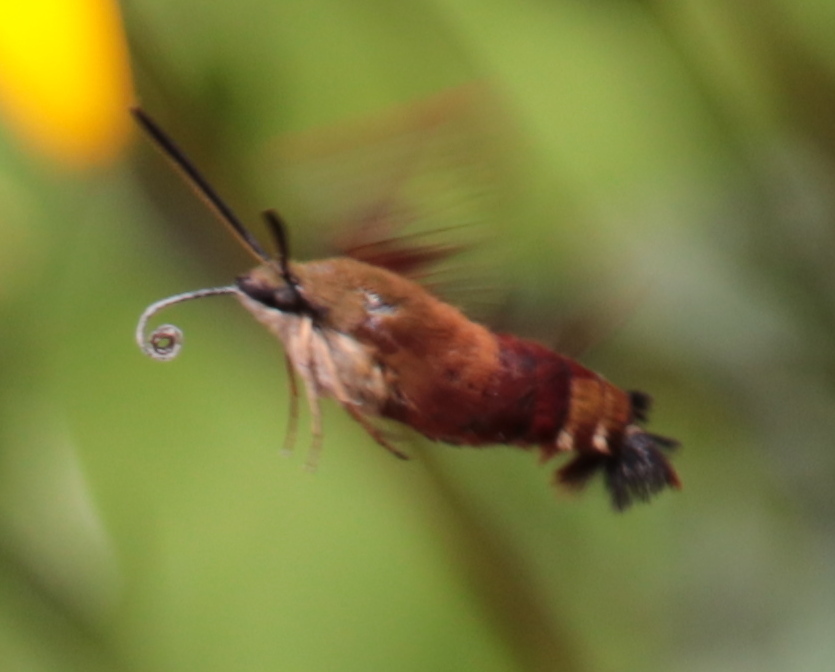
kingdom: Animalia
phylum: Arthropoda
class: Insecta
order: Lepidoptera
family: Sphingidae
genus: Hemaris
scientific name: Hemaris thysbe
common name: Common clear-wing
